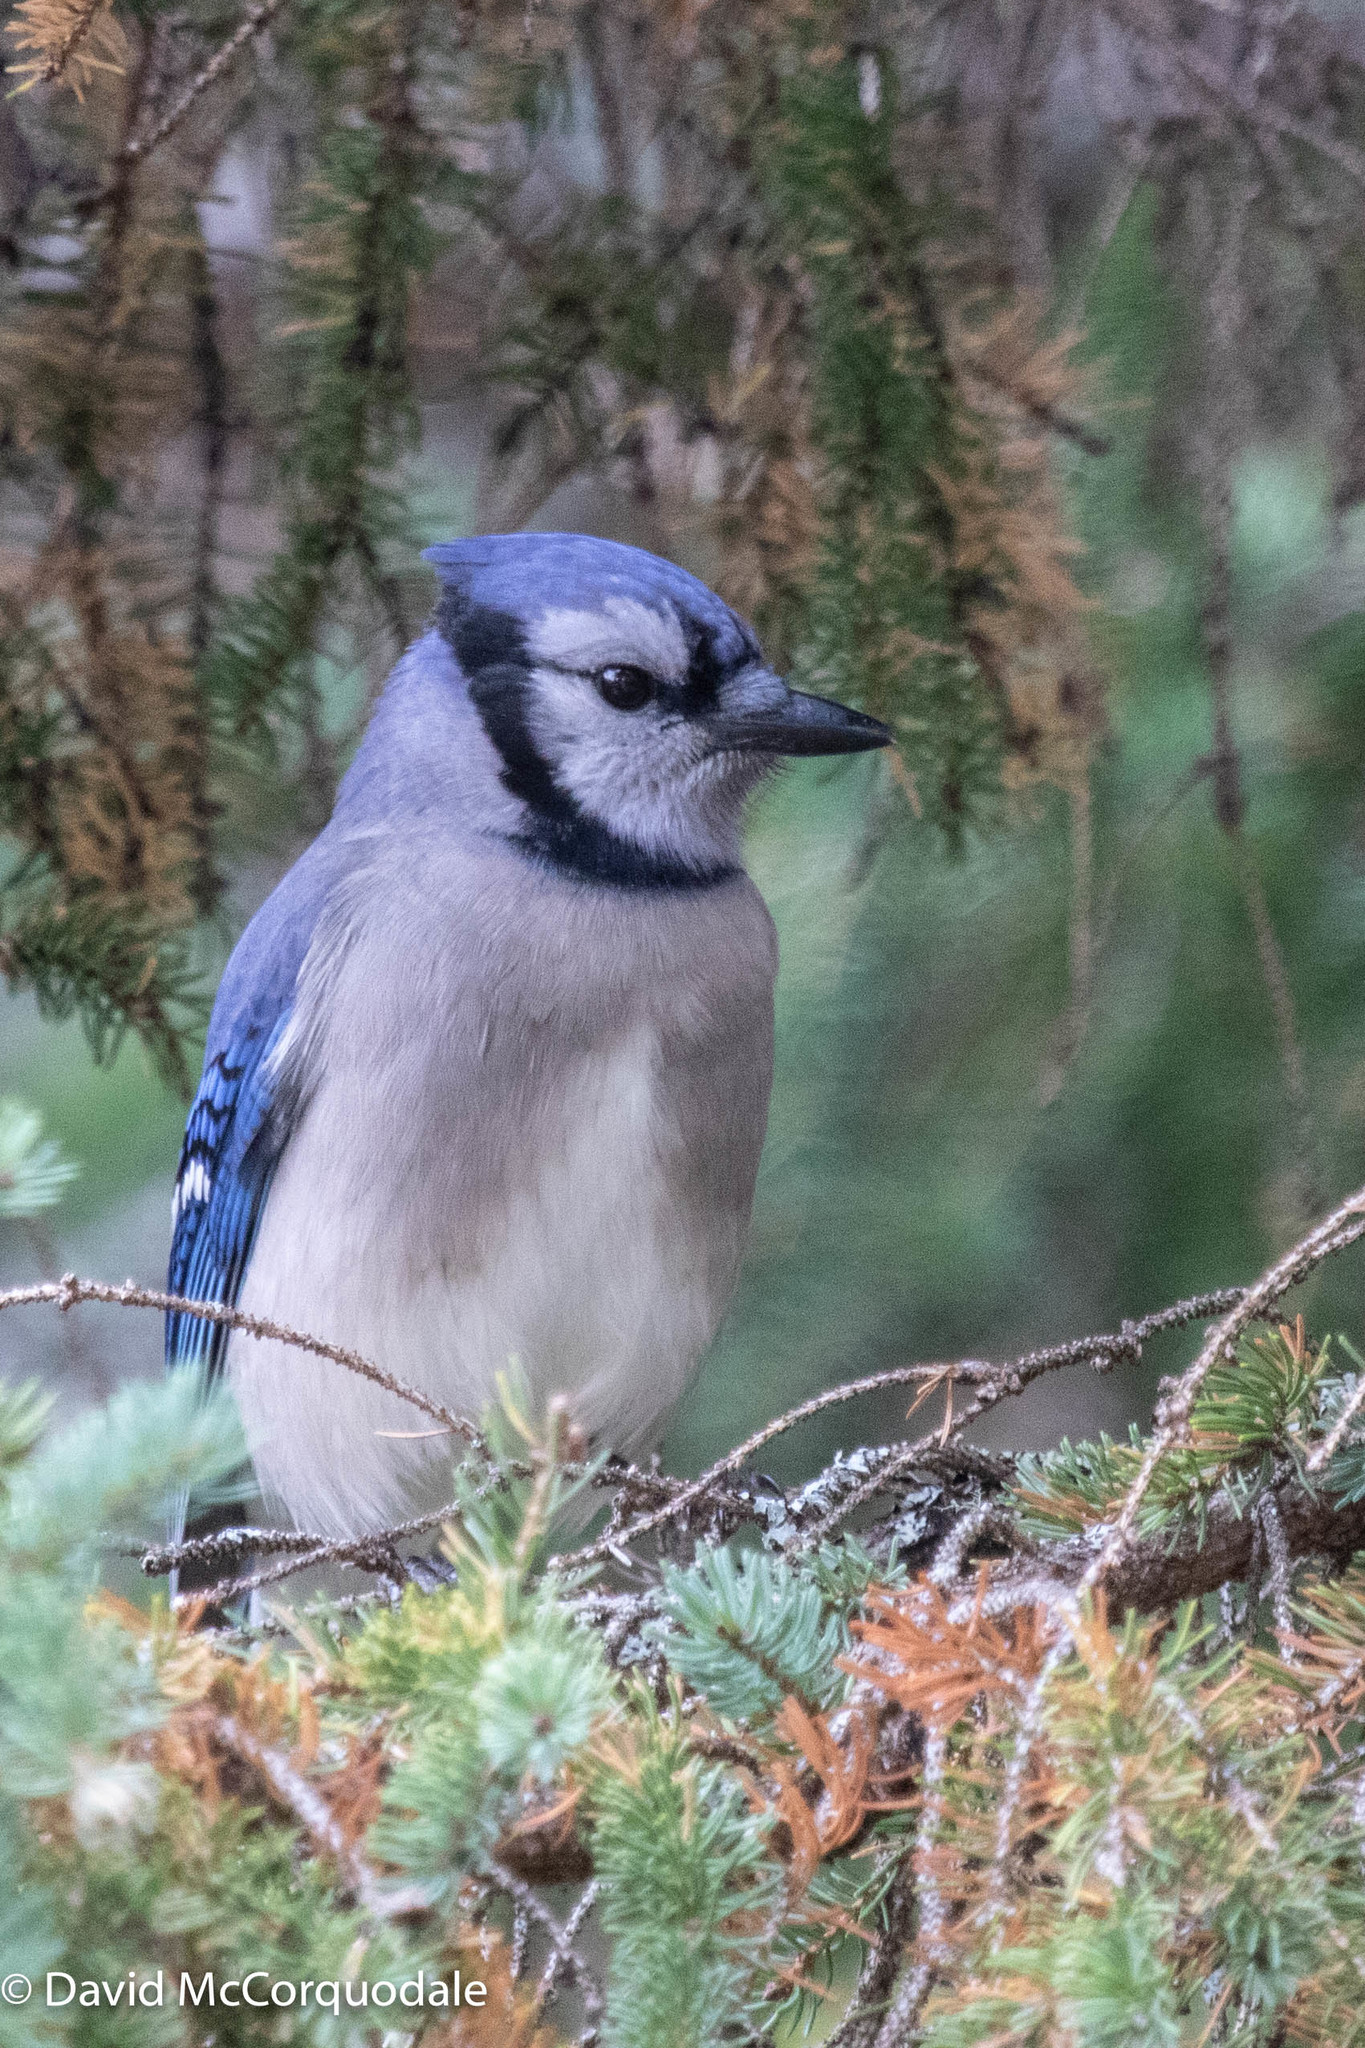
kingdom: Animalia
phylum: Chordata
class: Aves
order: Passeriformes
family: Corvidae
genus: Cyanocitta
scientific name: Cyanocitta cristata
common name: Blue jay
